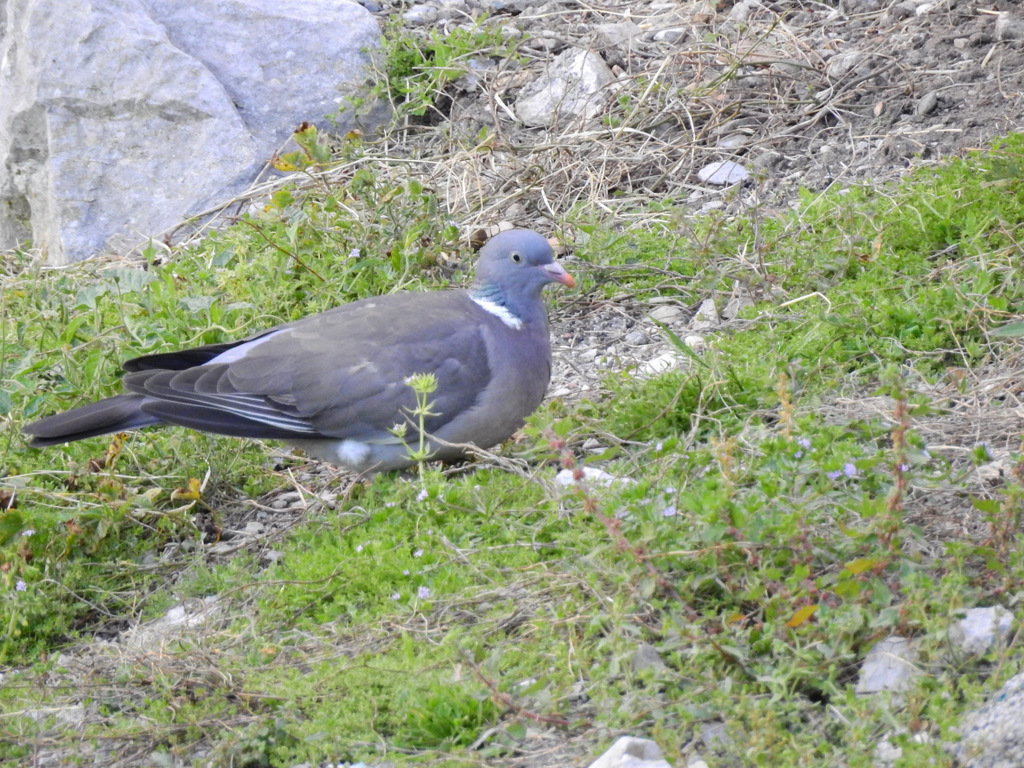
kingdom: Animalia
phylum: Chordata
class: Aves
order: Columbiformes
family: Columbidae
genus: Columba
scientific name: Columba palumbus
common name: Common wood pigeon
